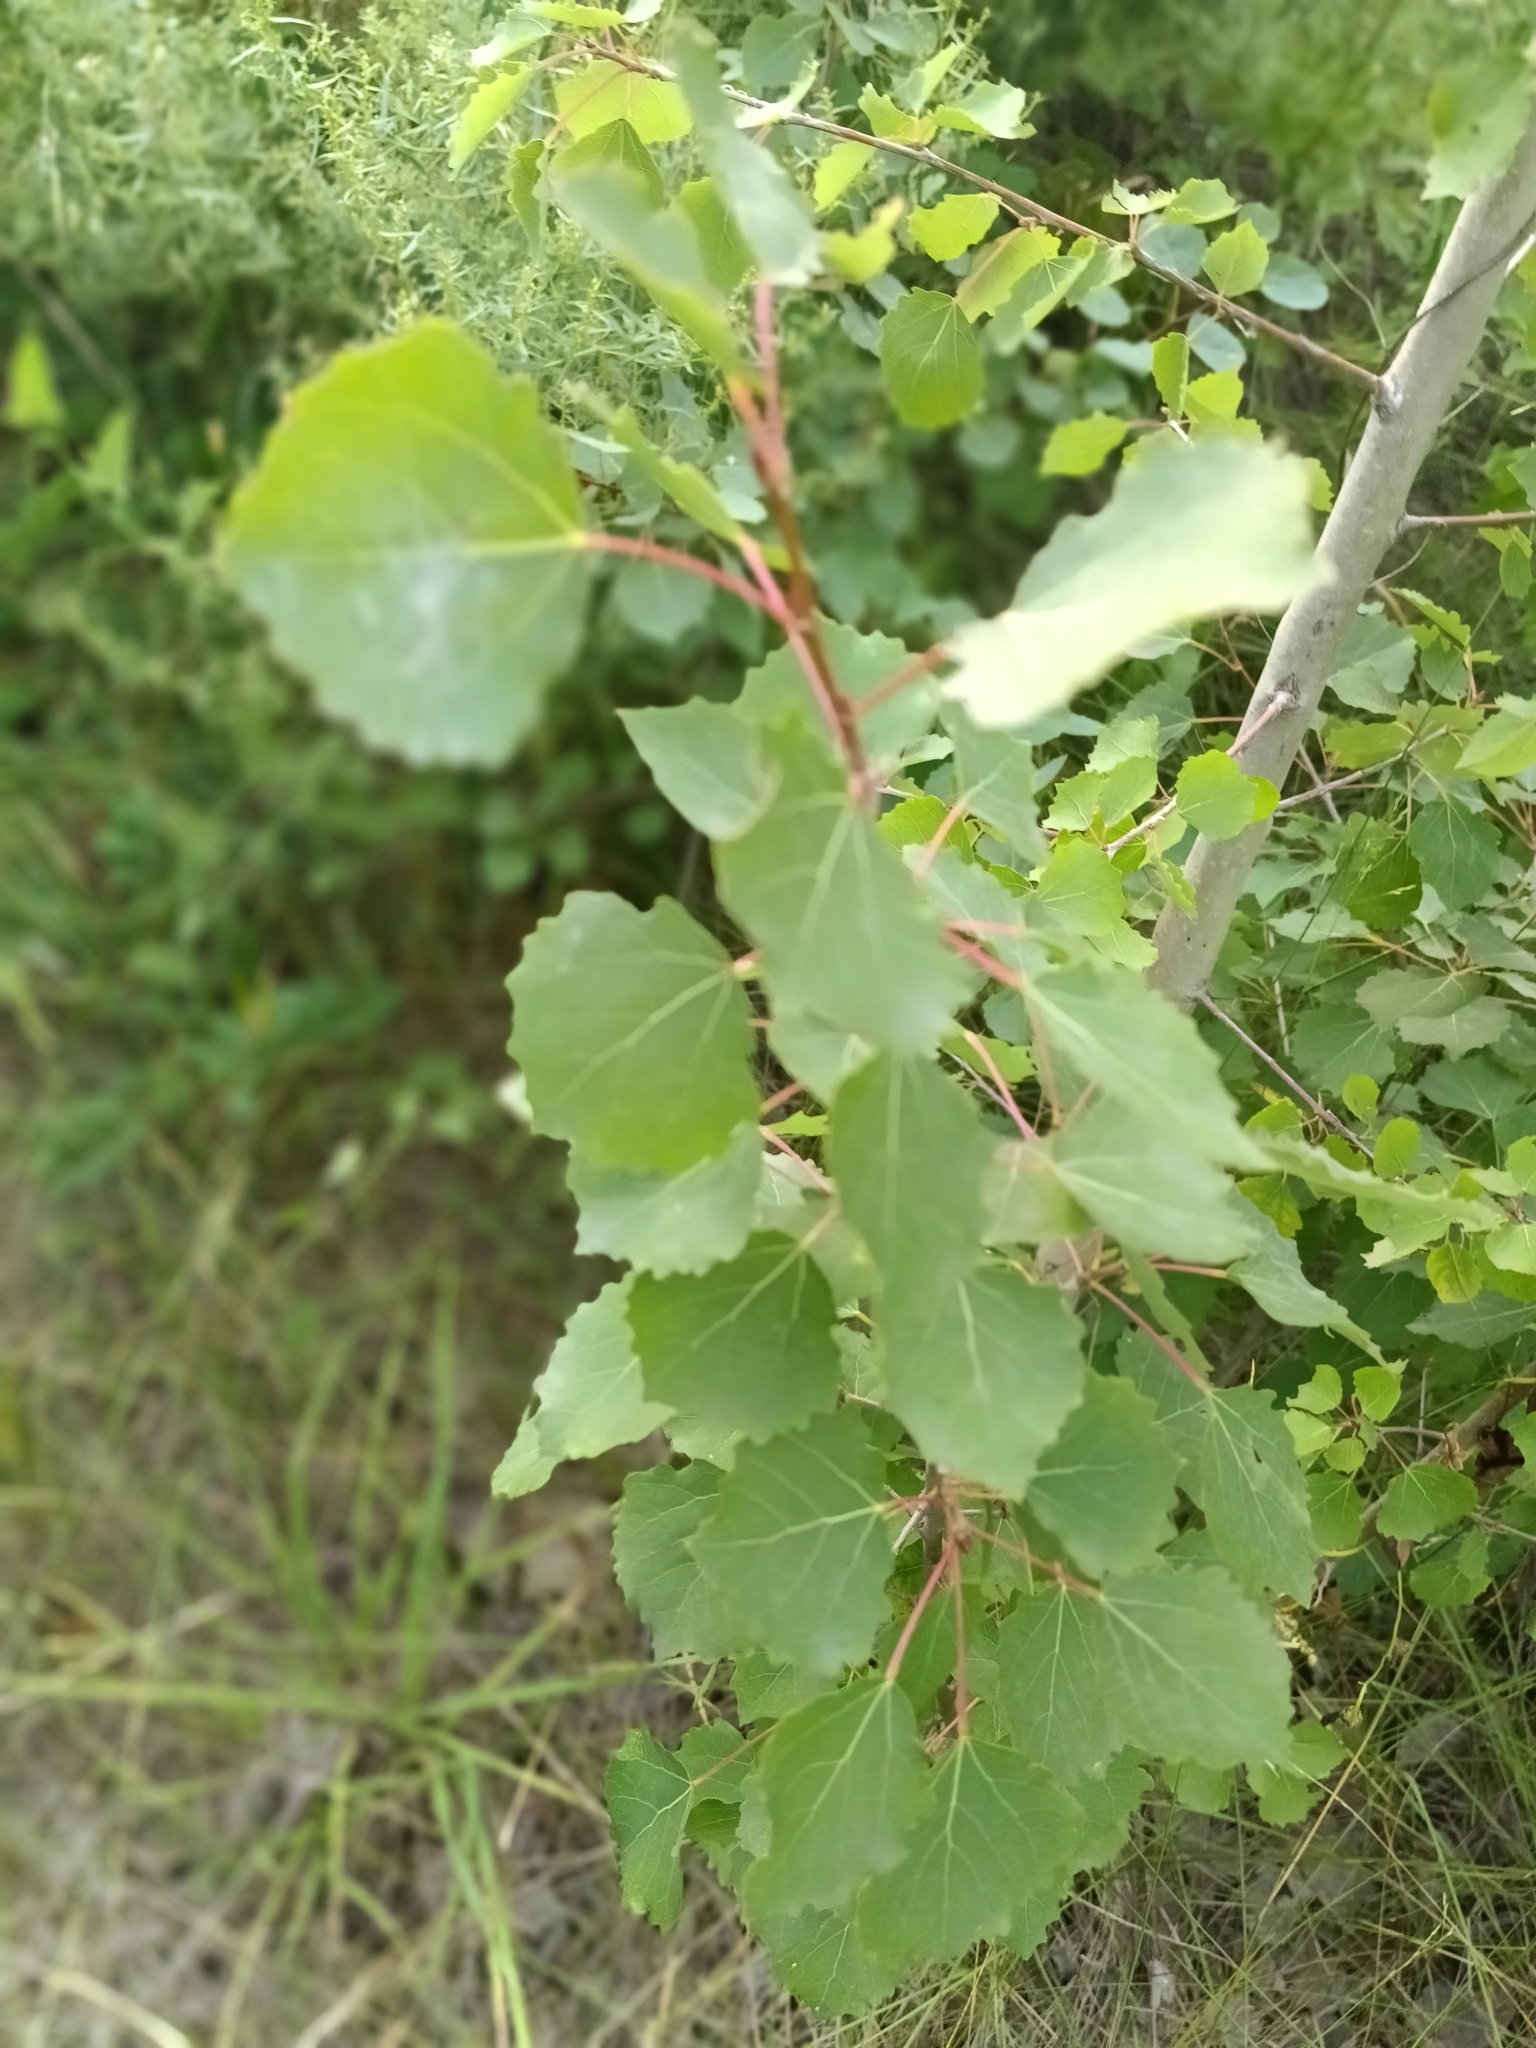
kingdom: Plantae
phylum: Tracheophyta
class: Magnoliopsida
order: Malpighiales
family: Salicaceae
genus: Populus
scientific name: Populus tremula
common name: European aspen
